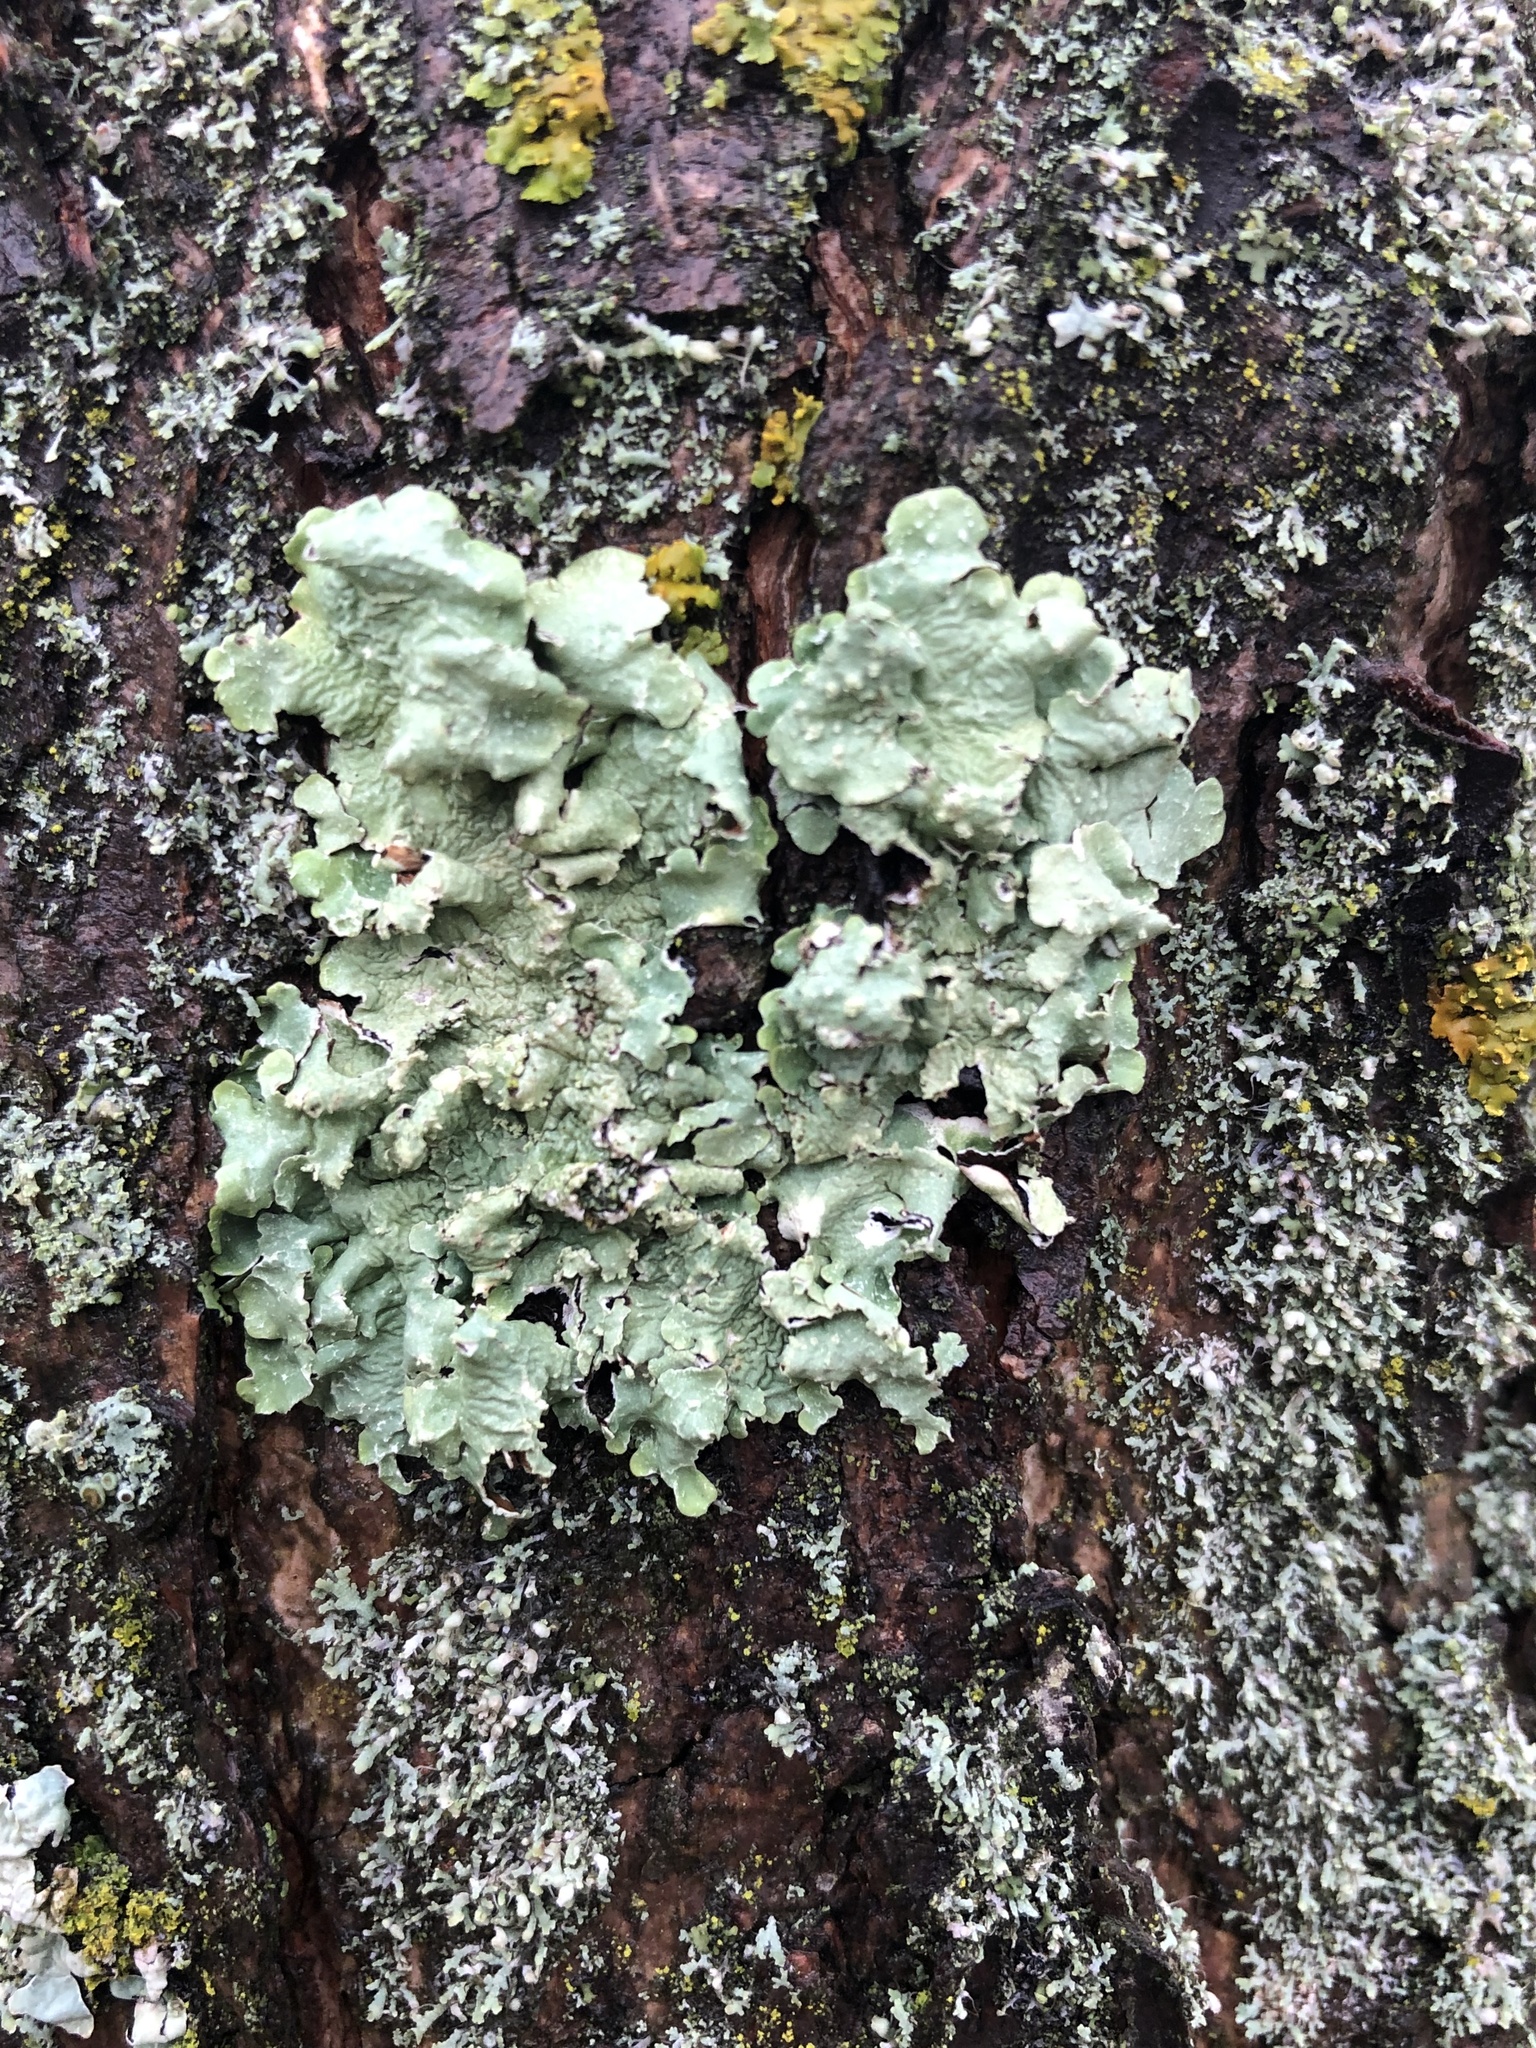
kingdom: Fungi
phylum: Ascomycota
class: Lecanoromycetes
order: Lecanorales
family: Parmeliaceae
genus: Flavopunctelia
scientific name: Flavopunctelia flaventior
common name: Speckled greenshield
